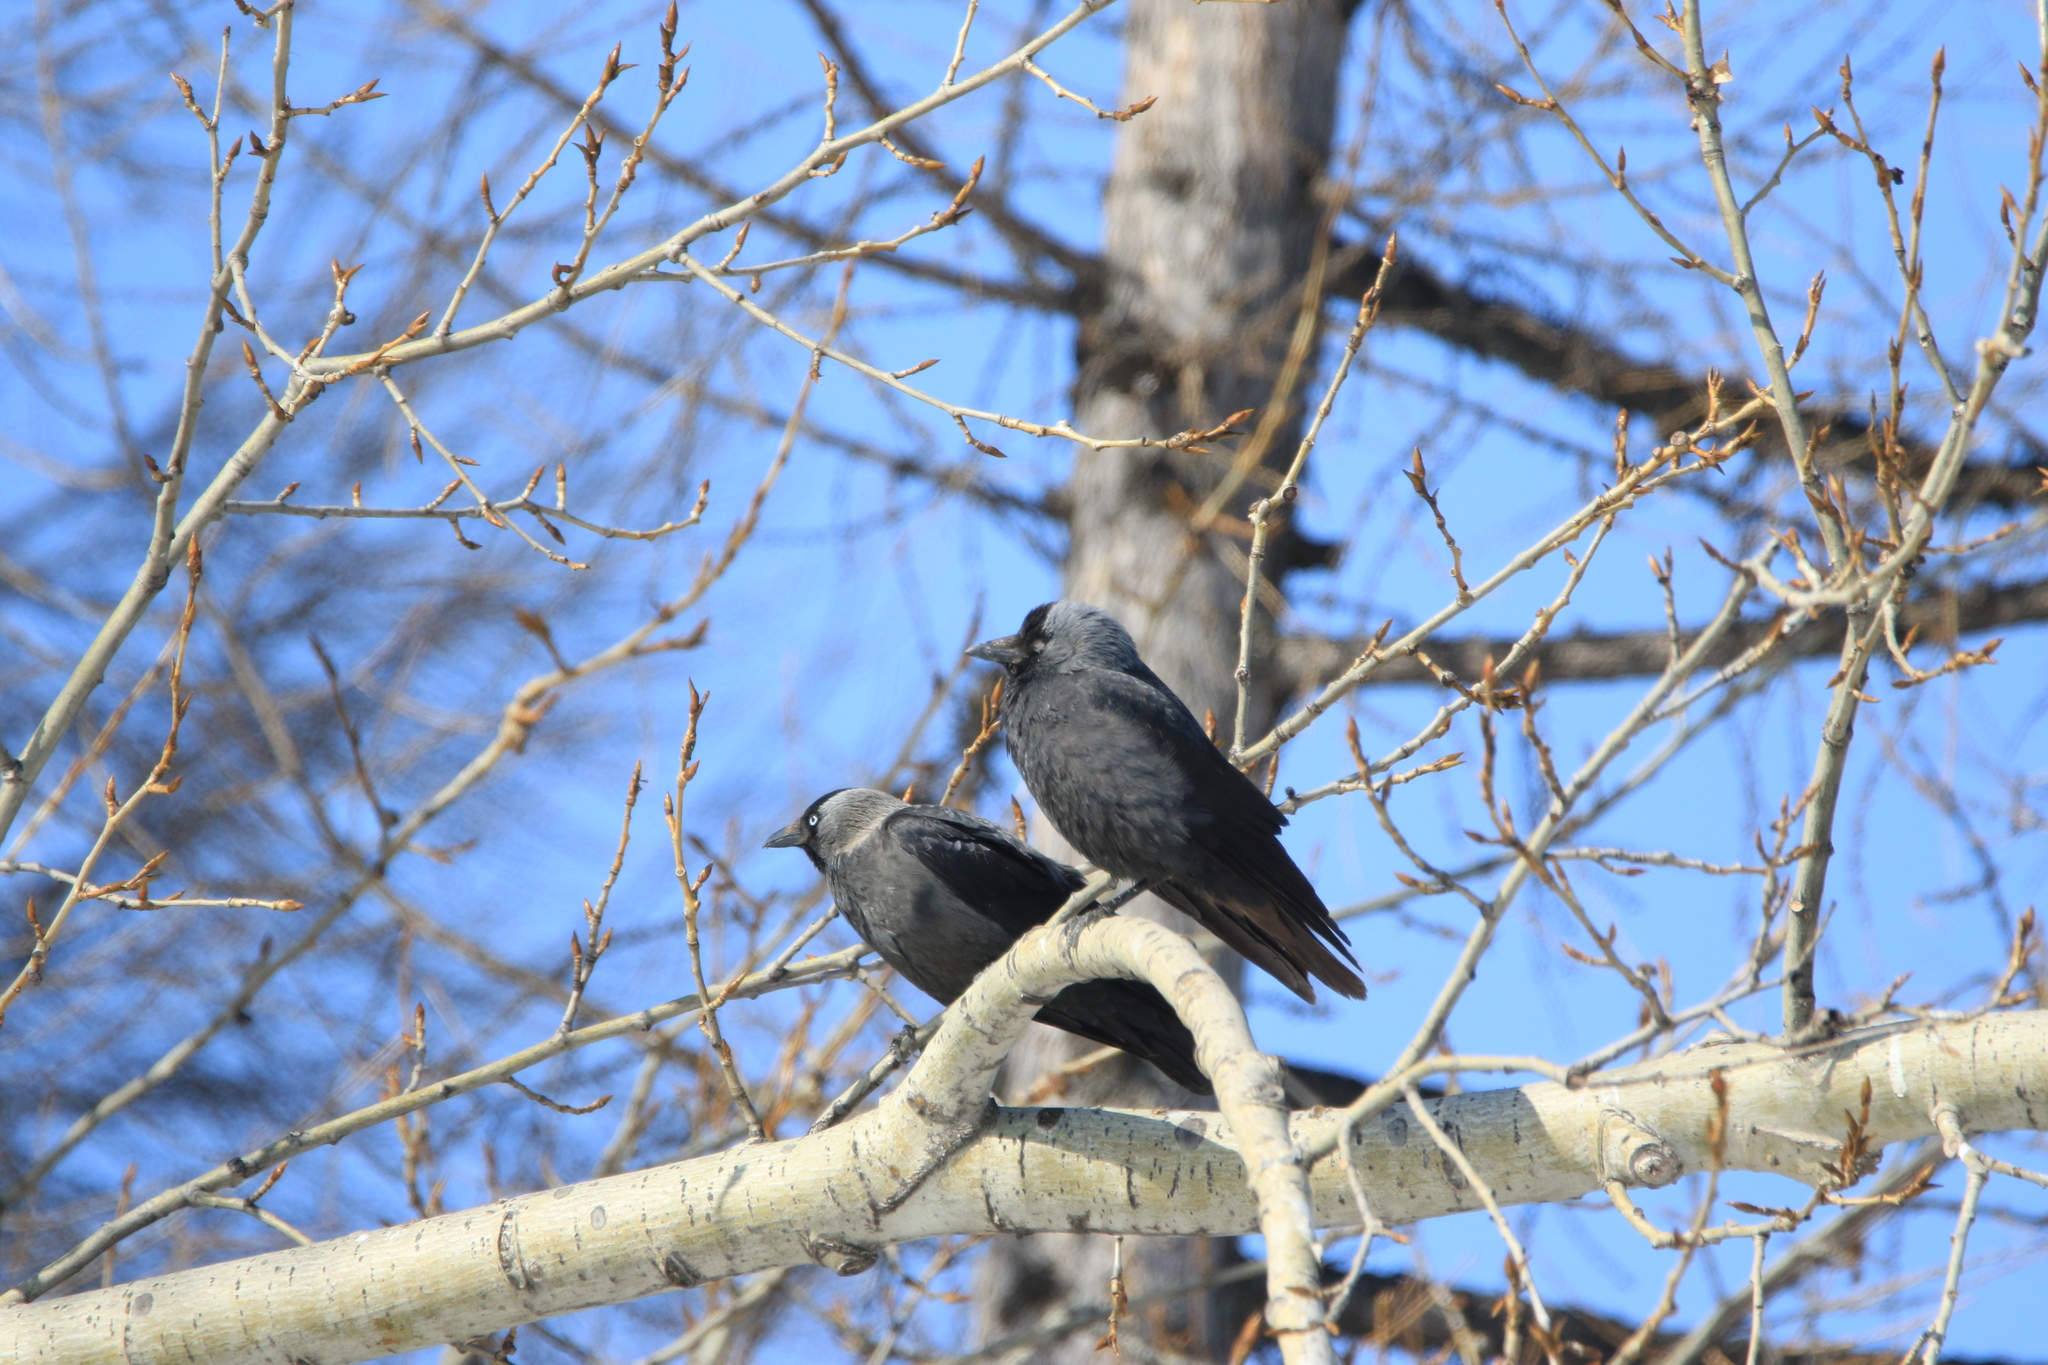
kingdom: Animalia
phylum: Chordata
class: Aves
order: Passeriformes
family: Corvidae
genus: Coloeus
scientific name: Coloeus monedula
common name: Western jackdaw
